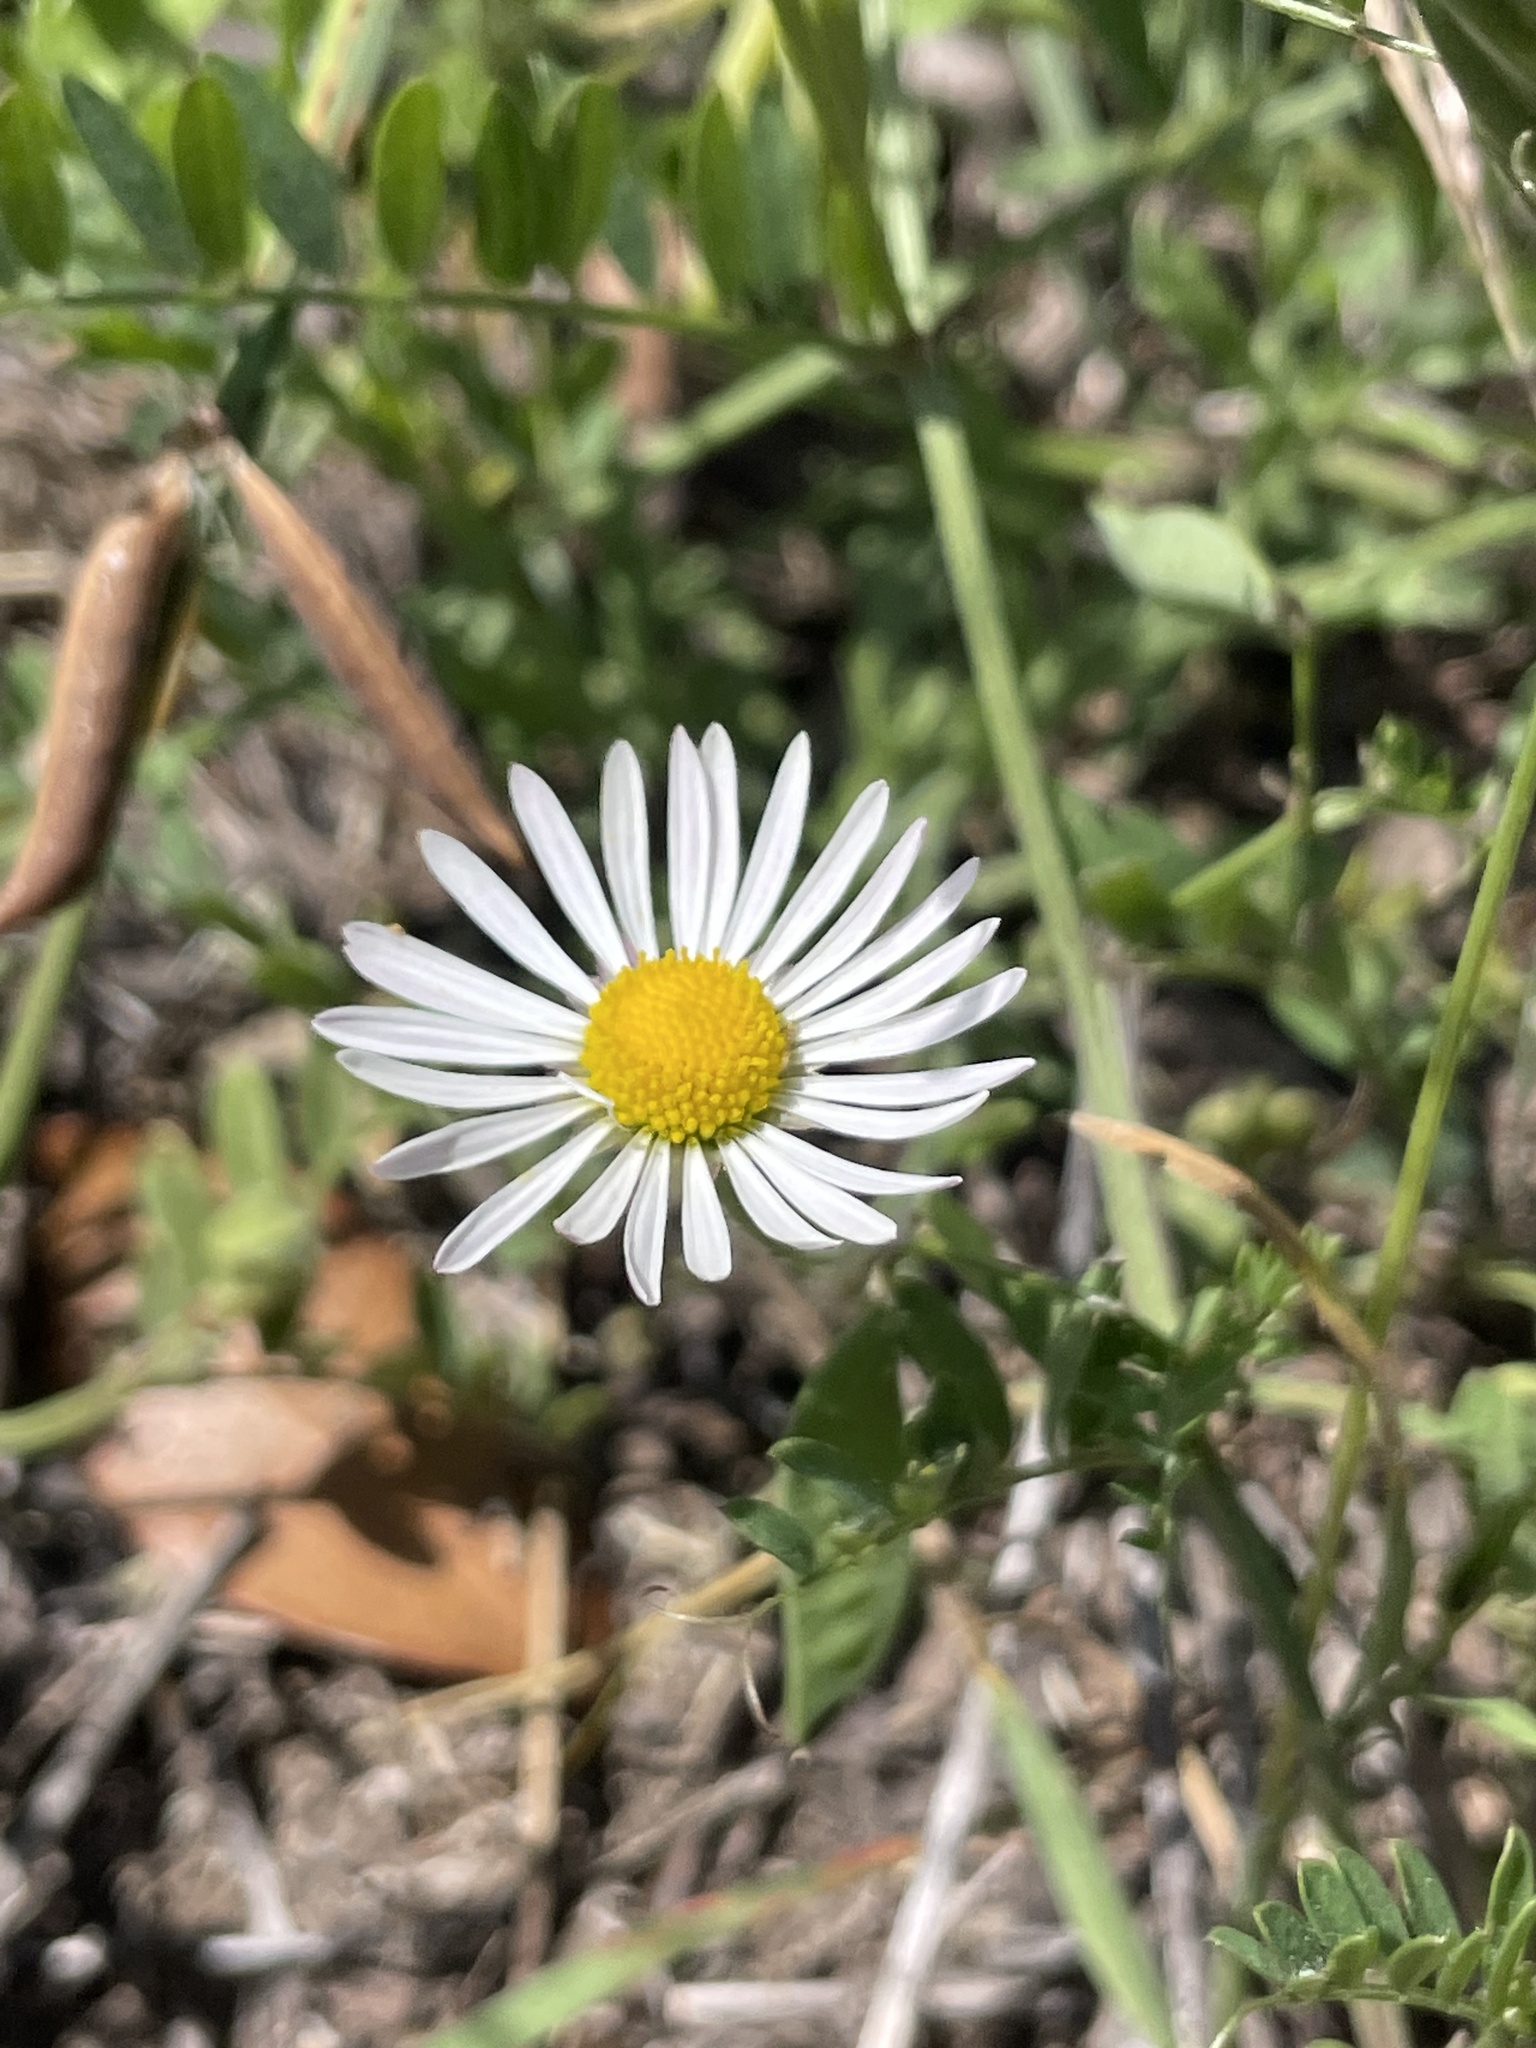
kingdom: Plantae
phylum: Tracheophyta
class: Magnoliopsida
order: Asterales
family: Asteraceae
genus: Aphanostephus
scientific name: Aphanostephus ramosissimus
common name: Plains lazy daisy
